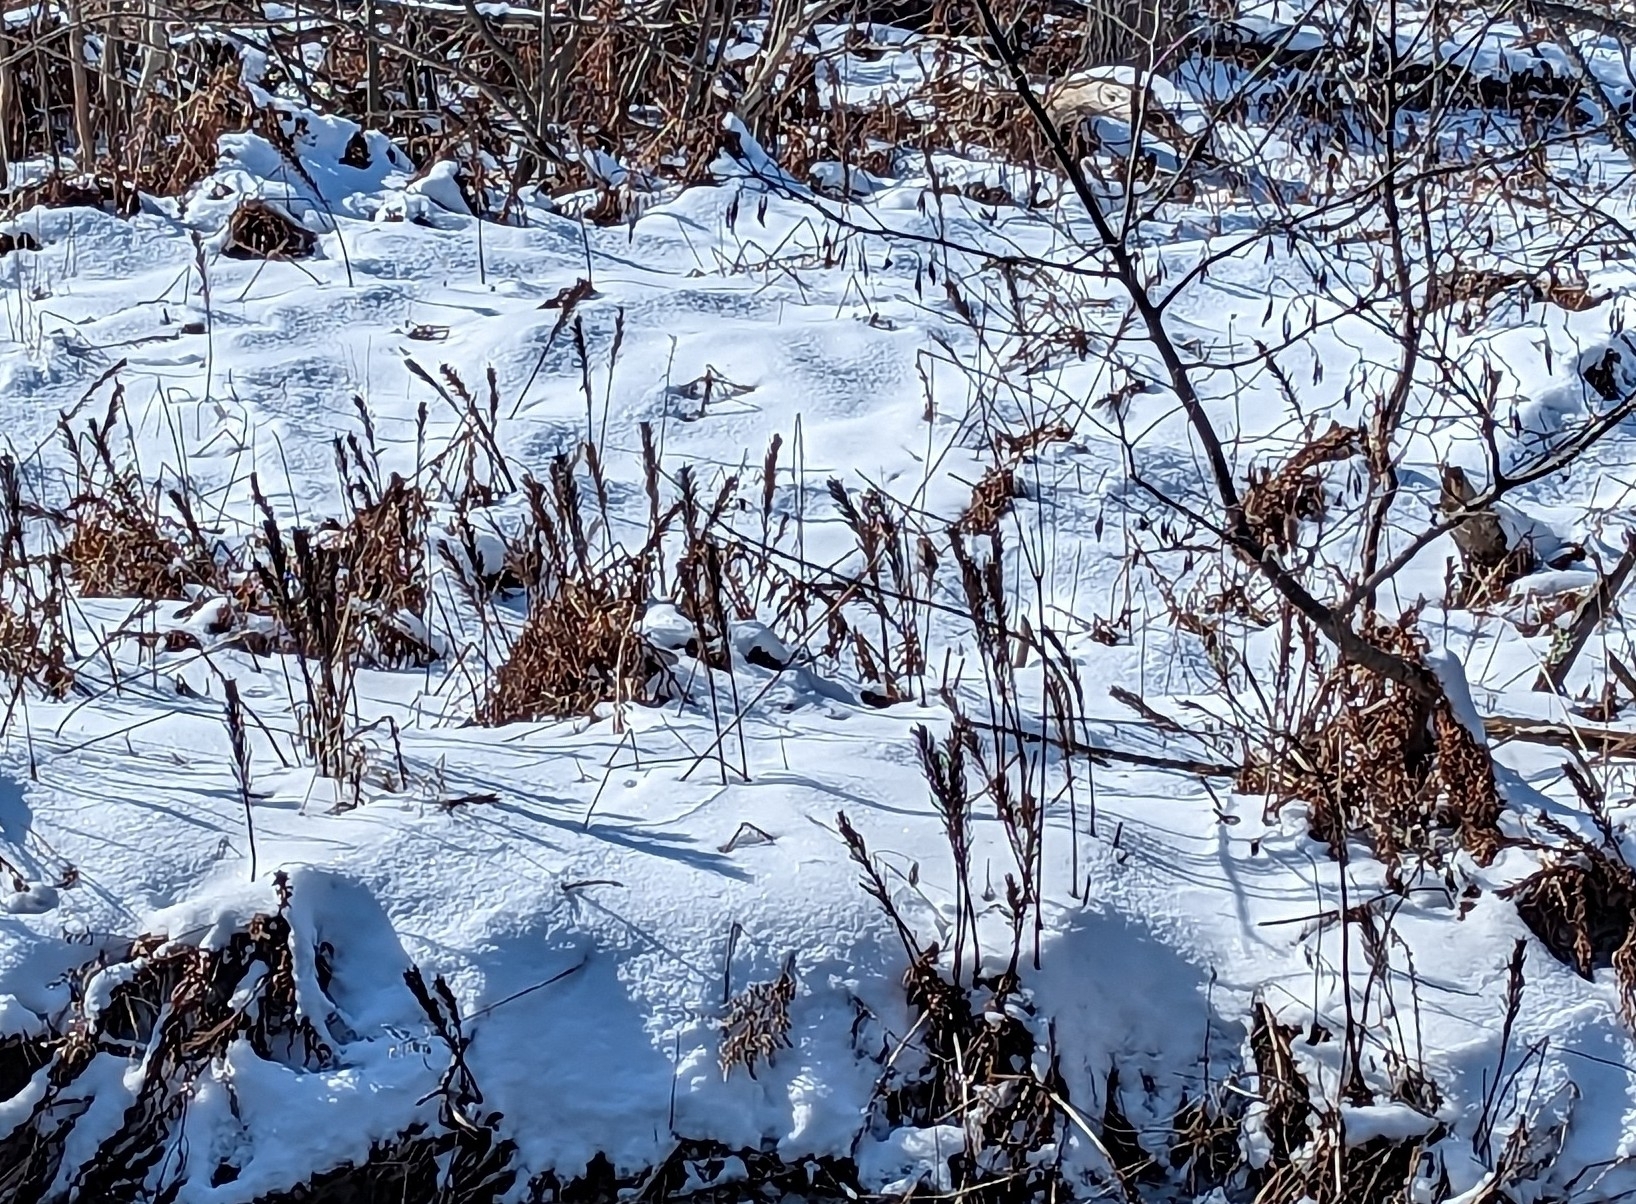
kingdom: Plantae
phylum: Tracheophyta
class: Polypodiopsida
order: Polypodiales
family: Onocleaceae
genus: Matteuccia
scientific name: Matteuccia struthiopteris
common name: Ostrich fern
